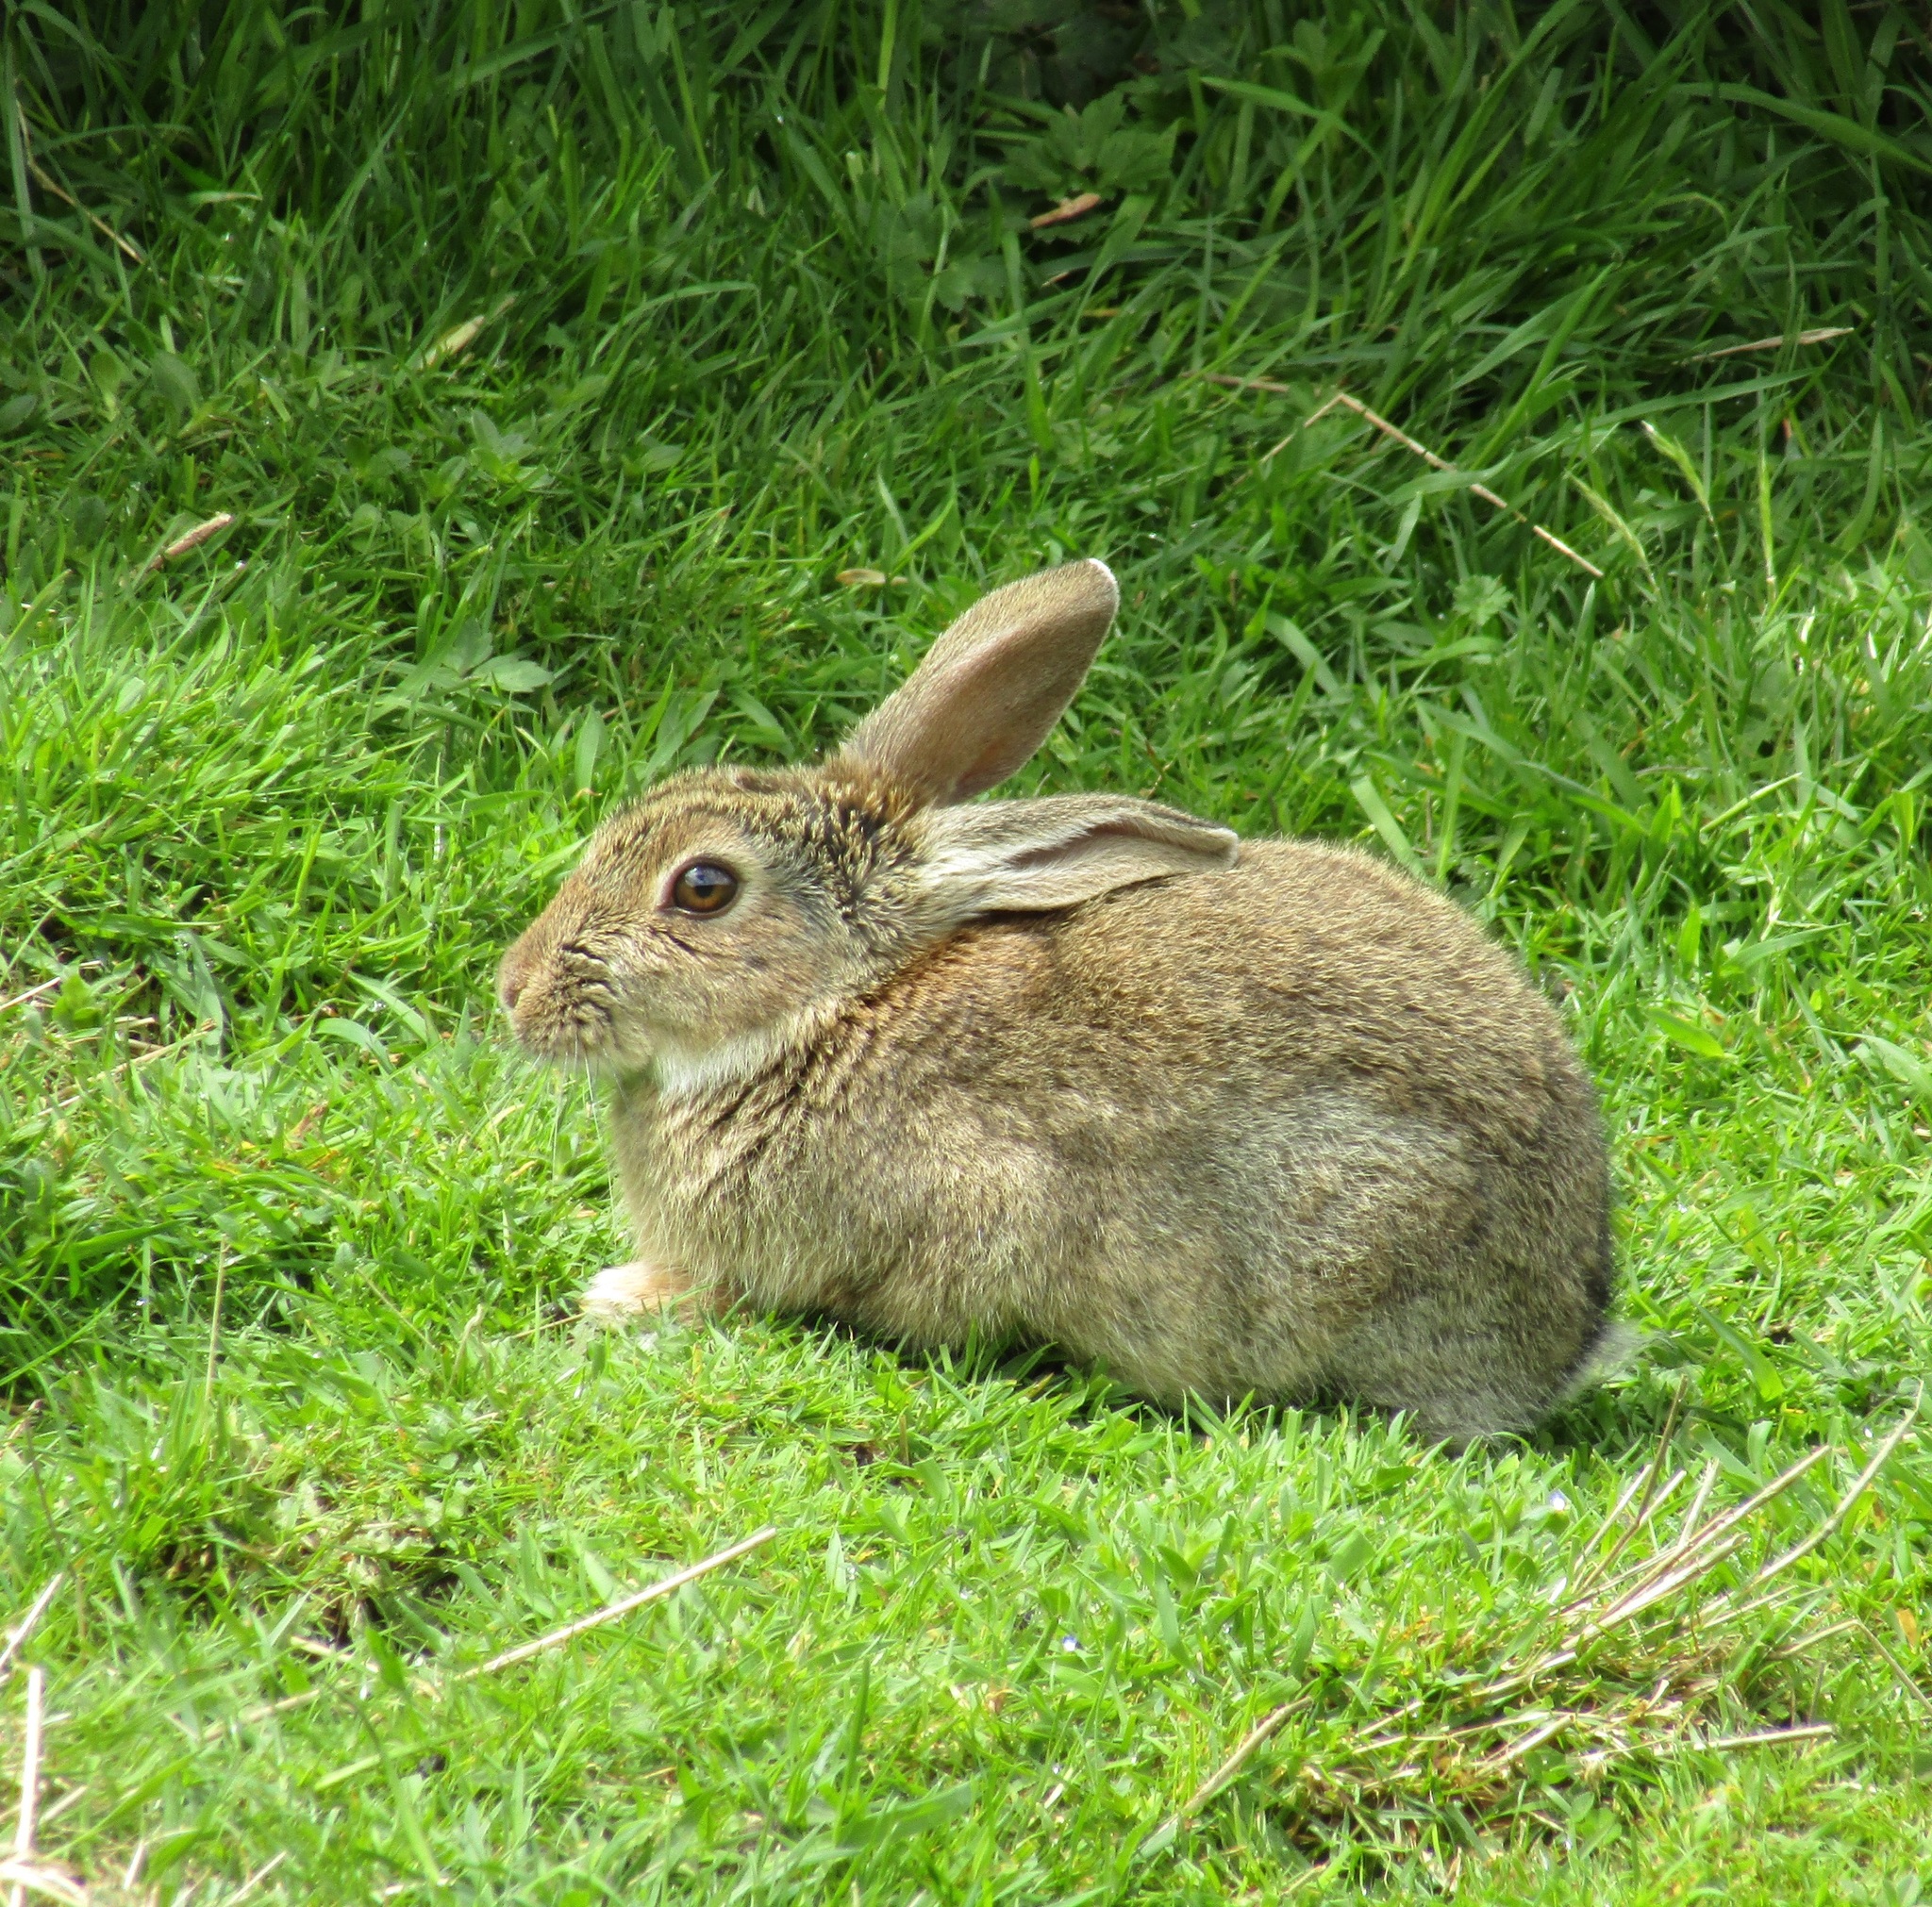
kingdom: Animalia
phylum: Chordata
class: Mammalia
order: Lagomorpha
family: Leporidae
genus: Oryctolagus
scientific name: Oryctolagus cuniculus
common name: European rabbit
